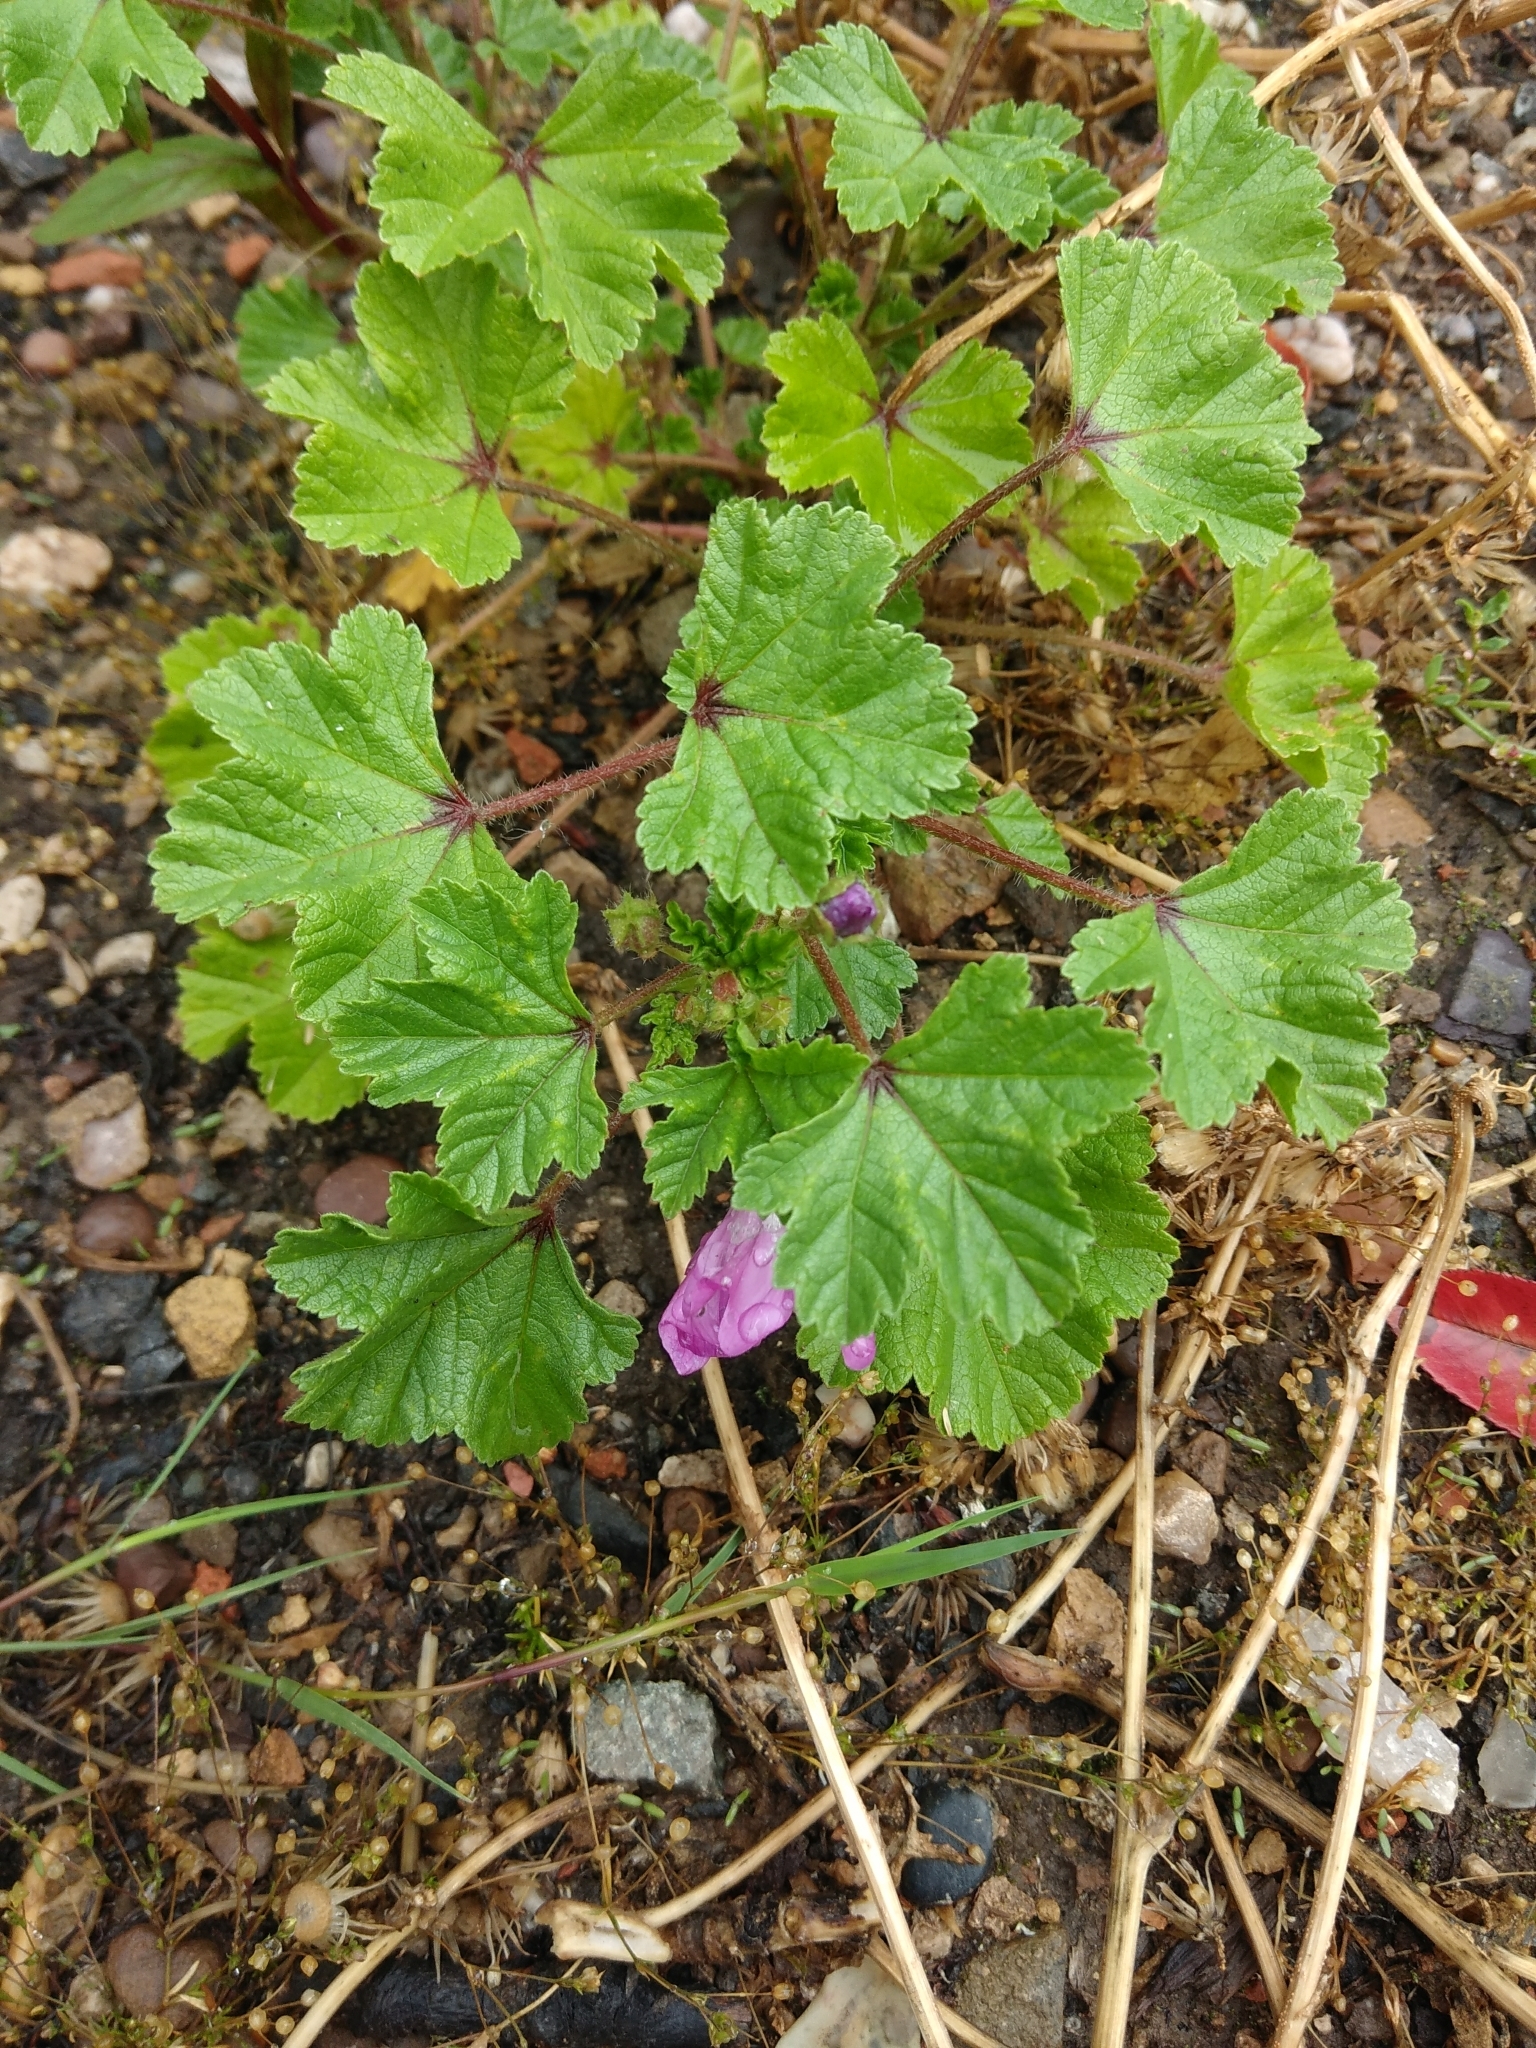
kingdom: Plantae
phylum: Tracheophyta
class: Magnoliopsida
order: Malvales
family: Malvaceae
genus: Malva
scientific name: Malva sylvestris
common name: Common mallow
